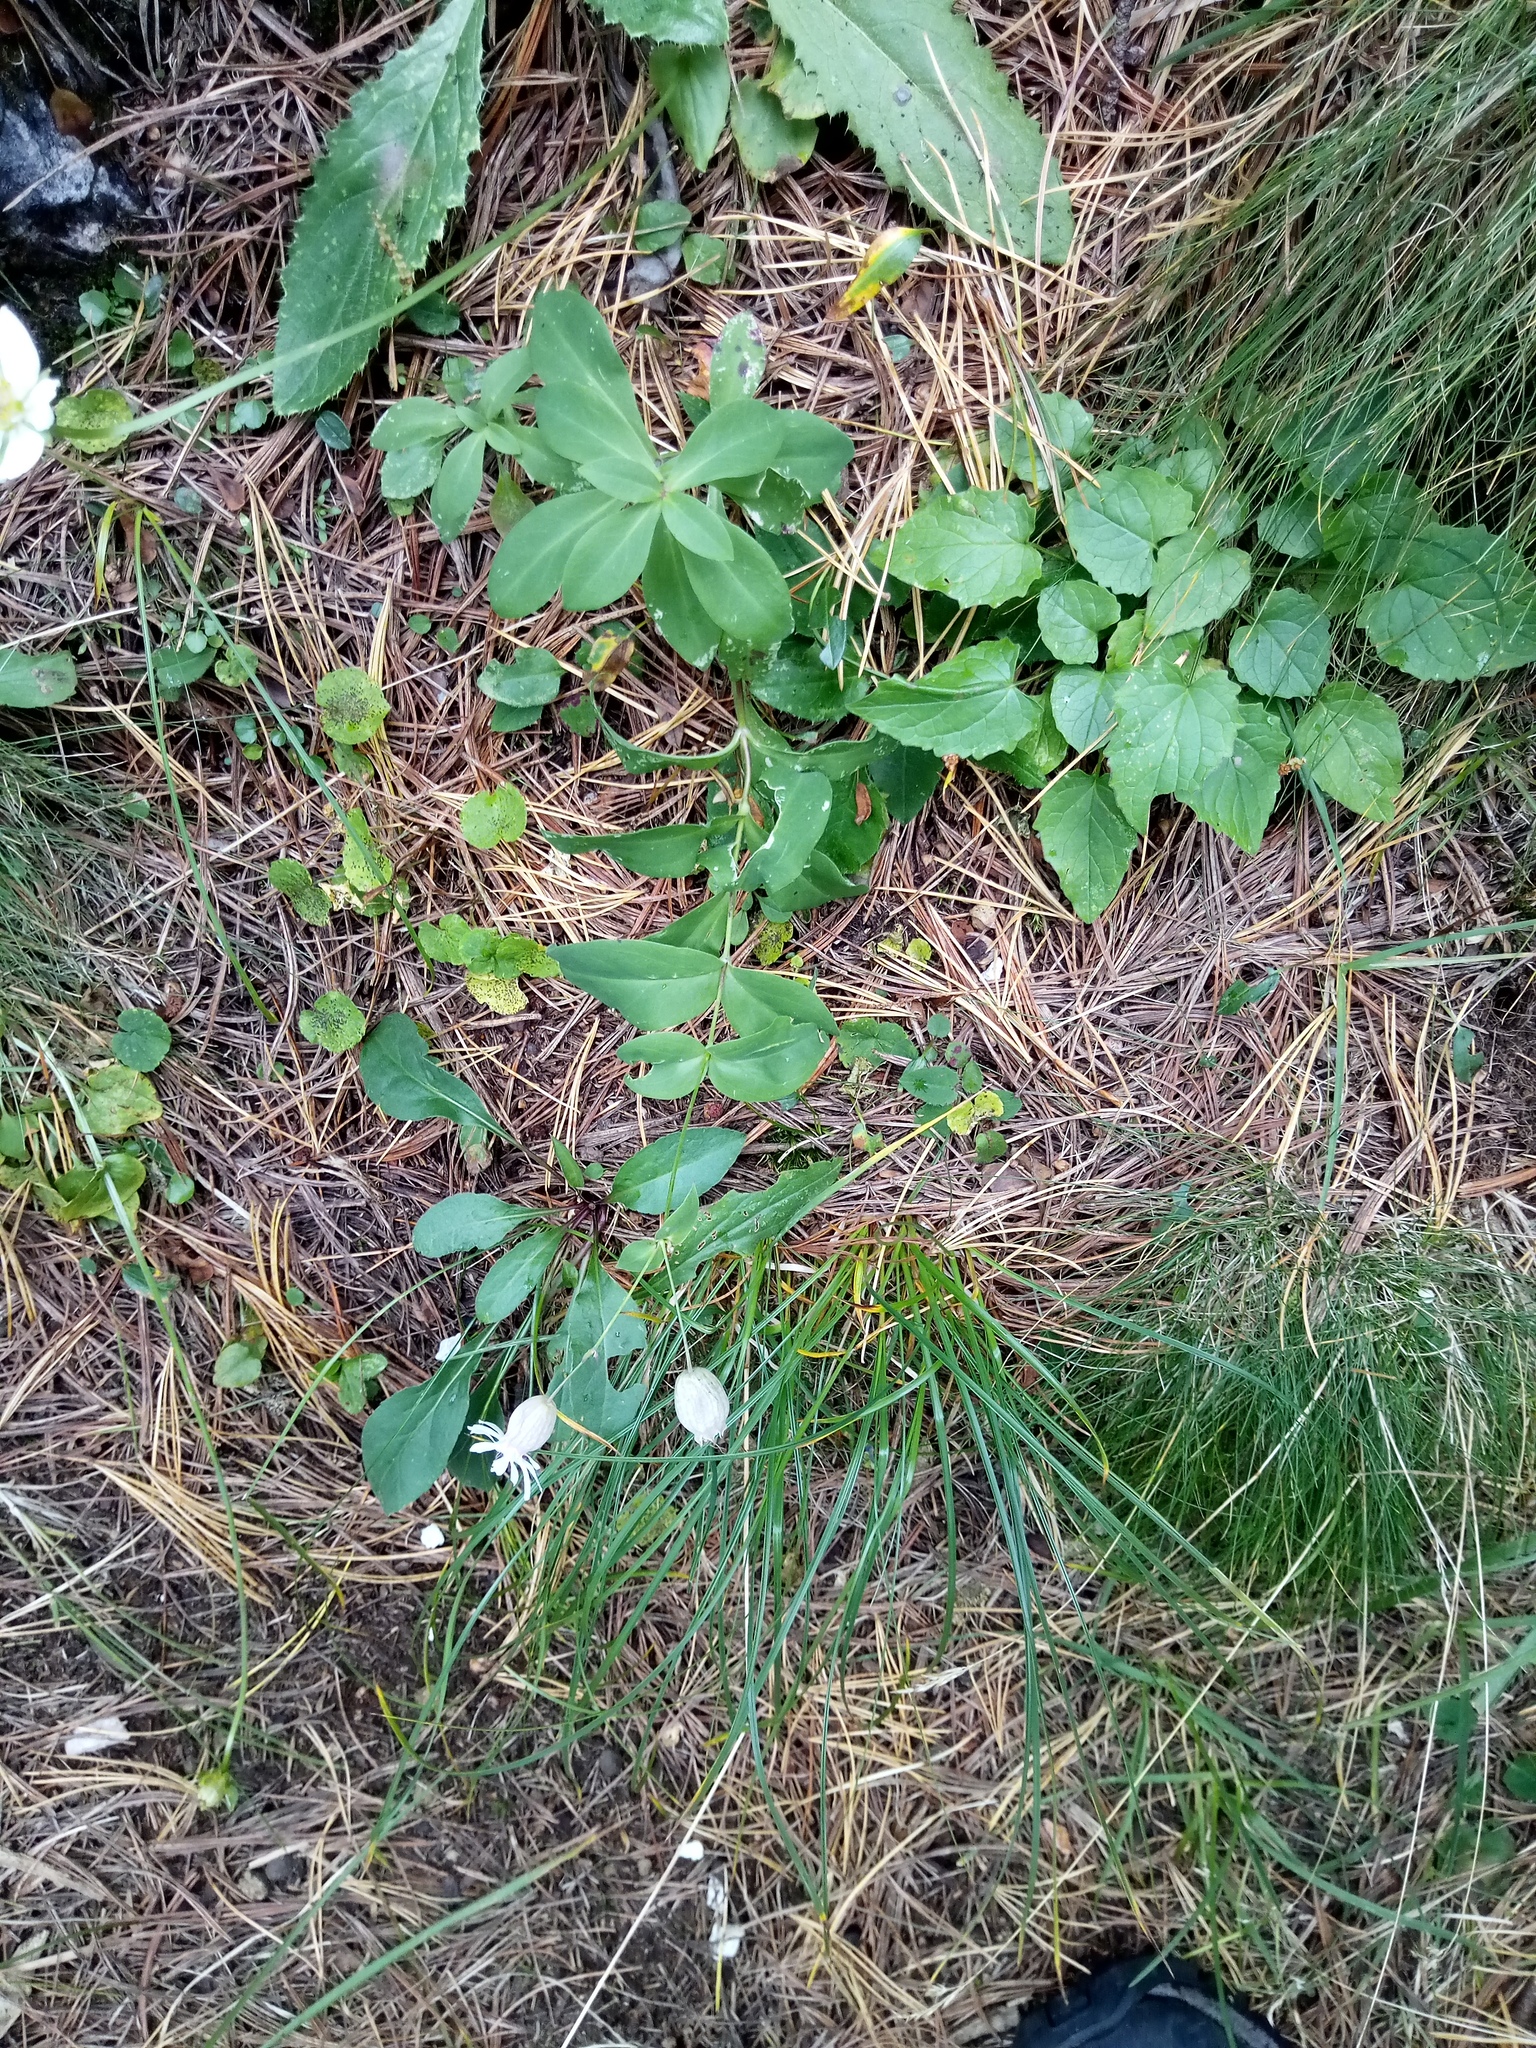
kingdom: Plantae
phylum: Tracheophyta
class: Magnoliopsida
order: Caryophyllales
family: Caryophyllaceae
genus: Silene
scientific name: Silene vulgaris
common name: Bladder campion
